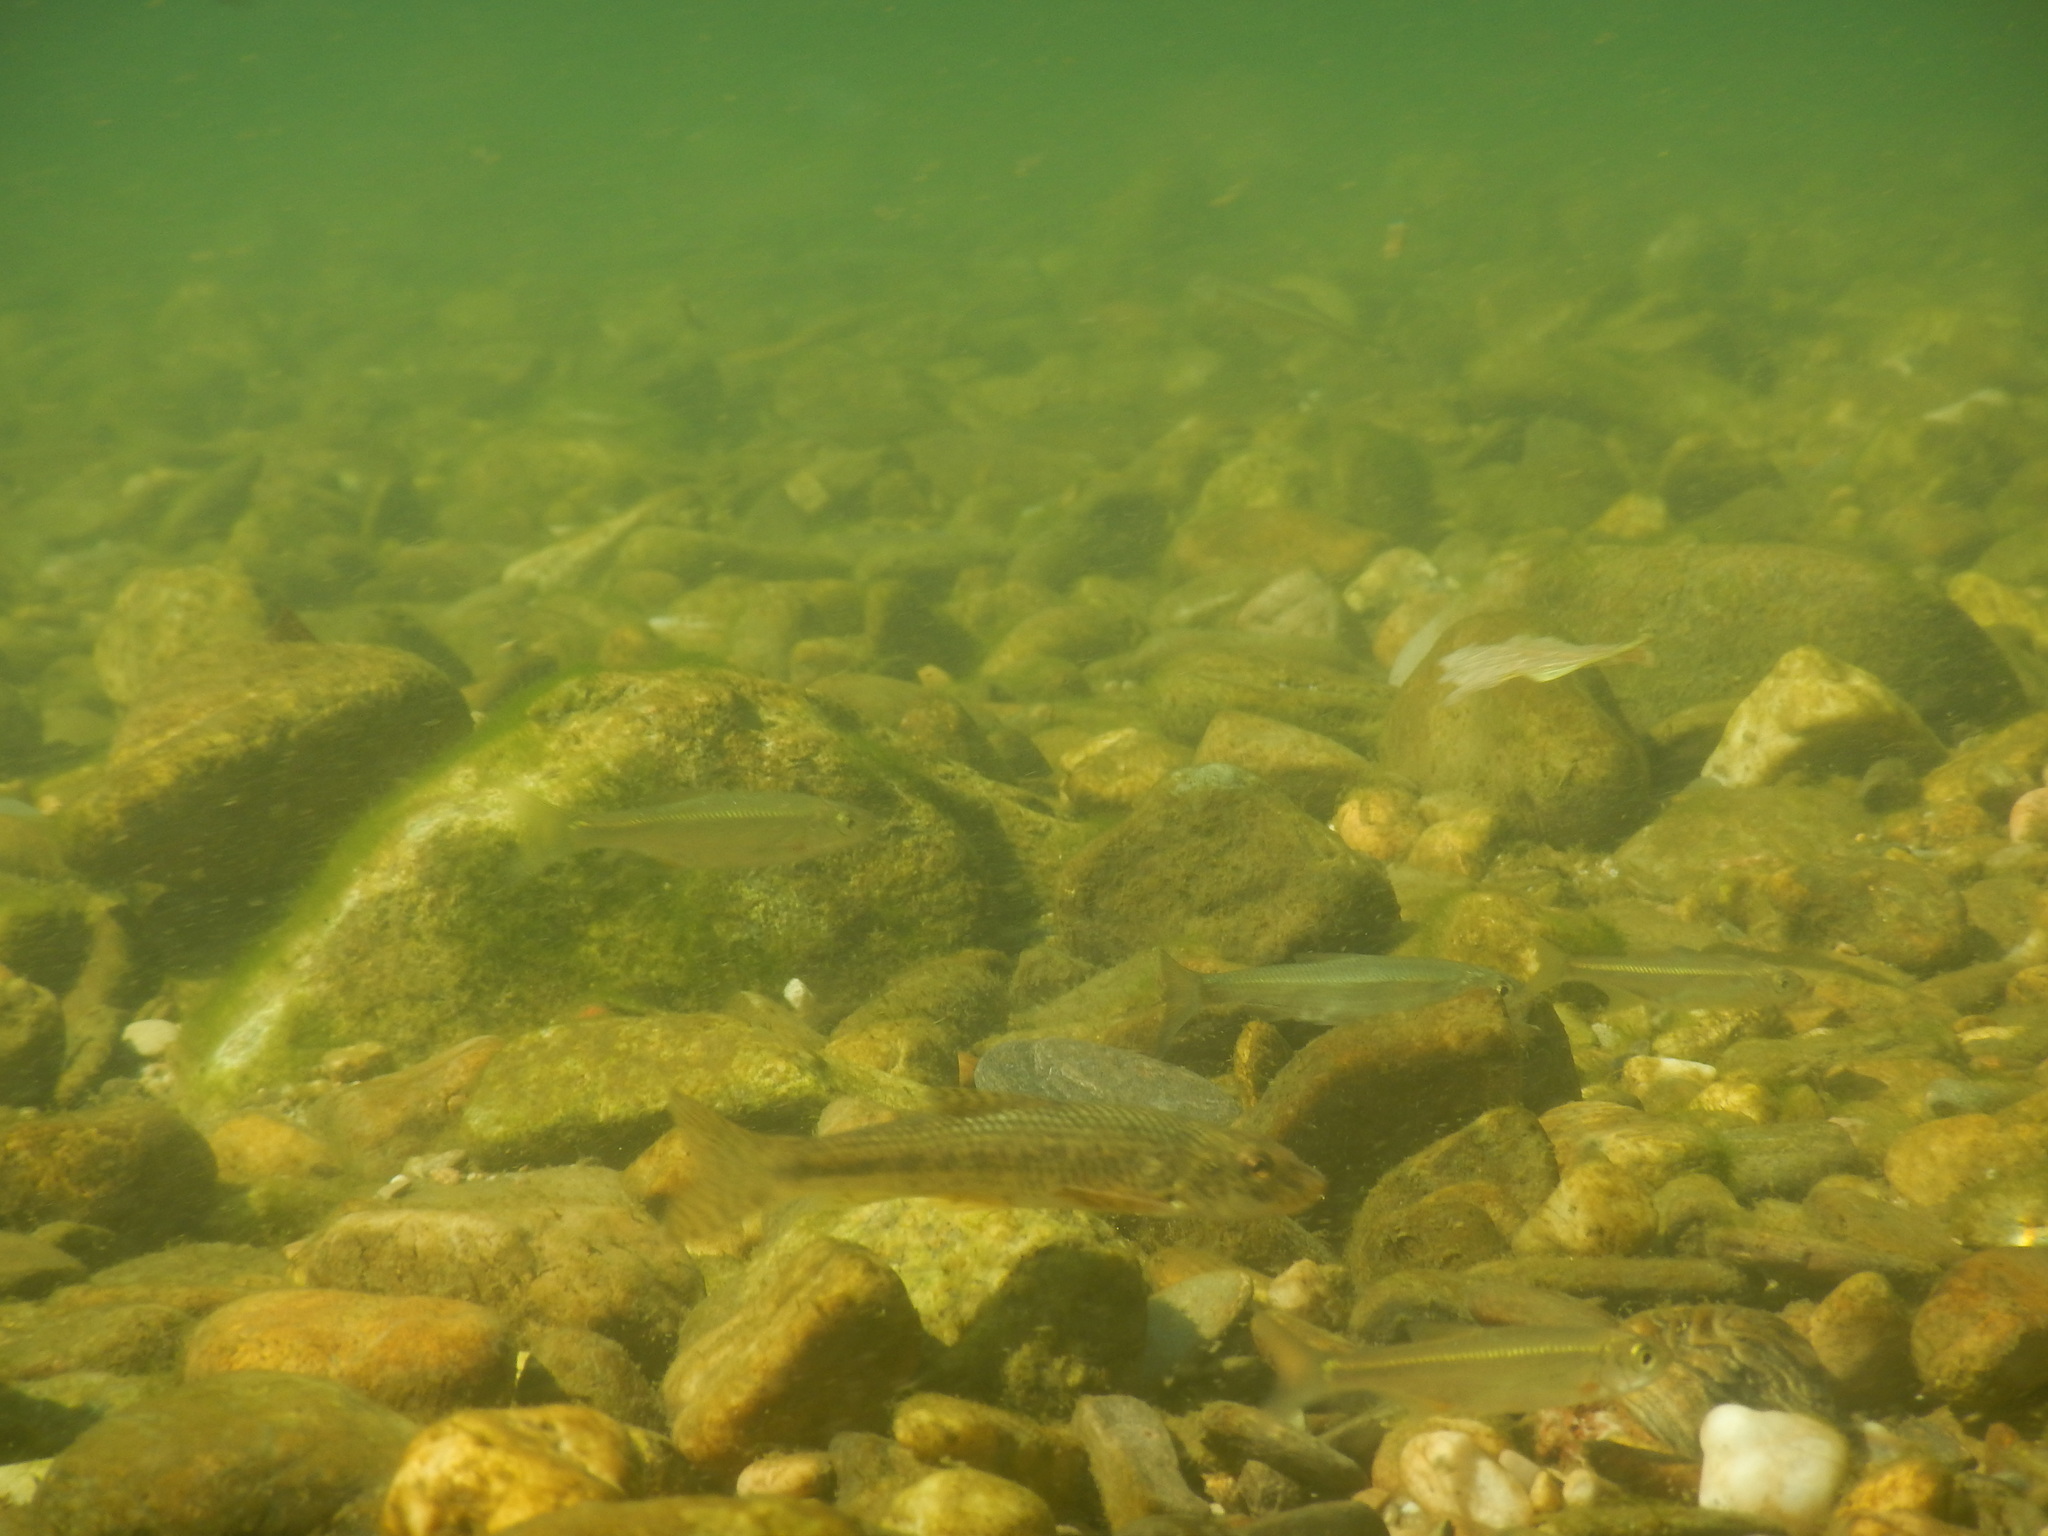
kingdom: Animalia
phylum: Chordata
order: Cypriniformes
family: Cyprinidae
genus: Alburnoides
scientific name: Alburnoides bipunctatus
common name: Spirlin
